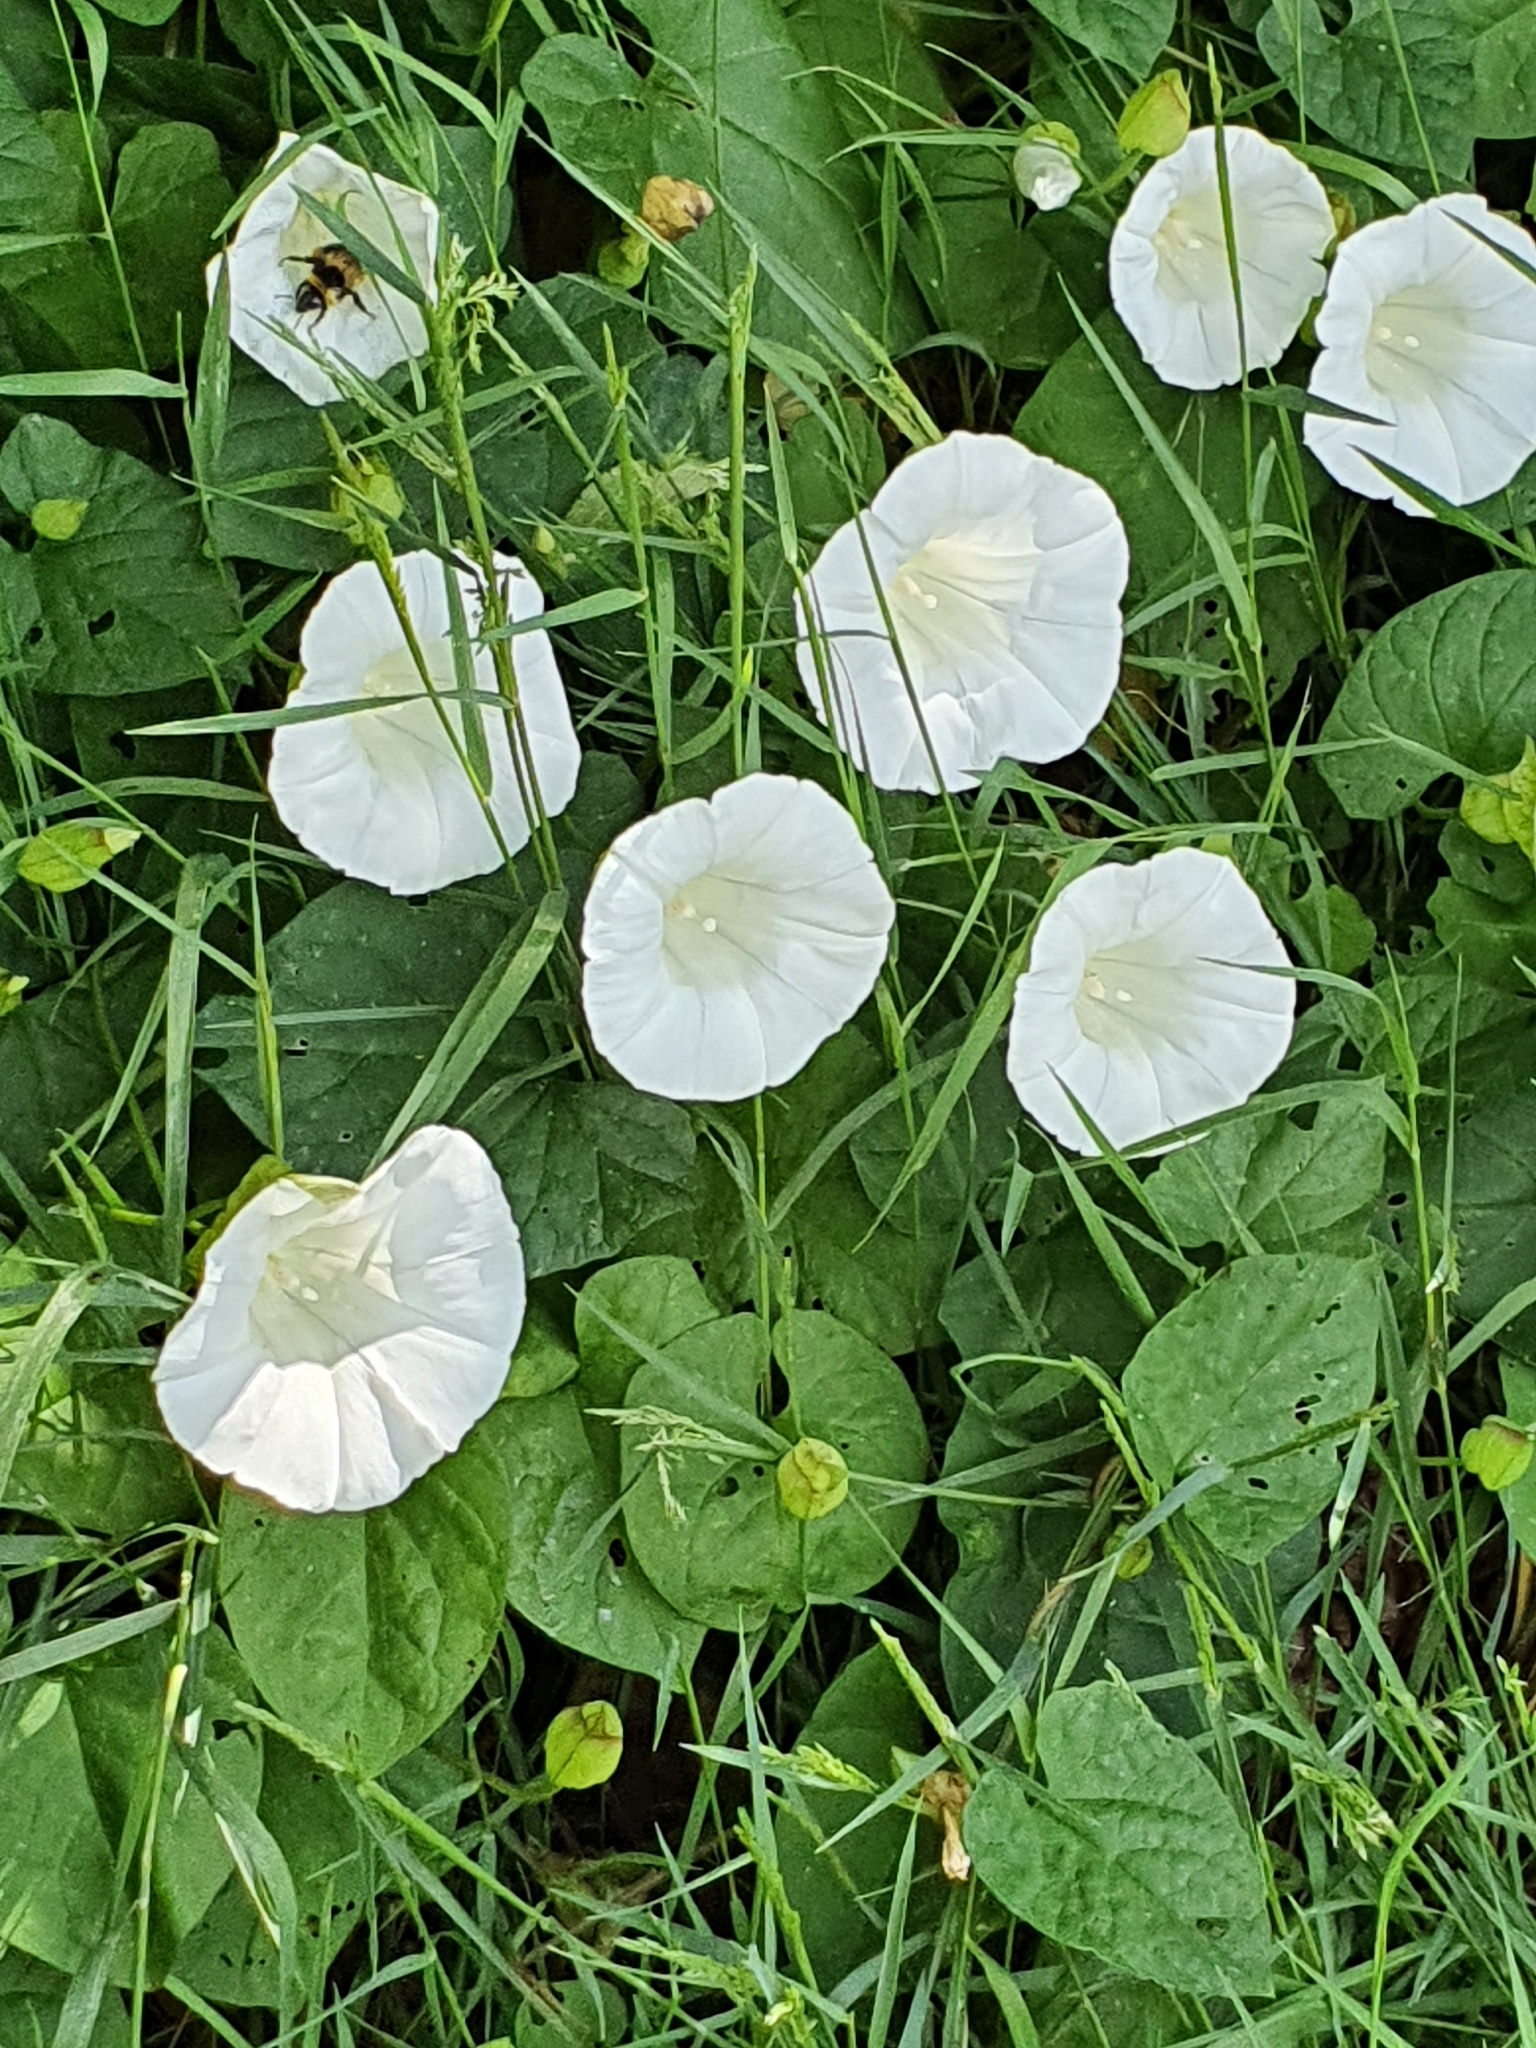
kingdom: Plantae
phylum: Tracheophyta
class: Magnoliopsida
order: Solanales
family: Convolvulaceae
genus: Calystegia
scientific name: Calystegia silvatica
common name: Large bindweed
